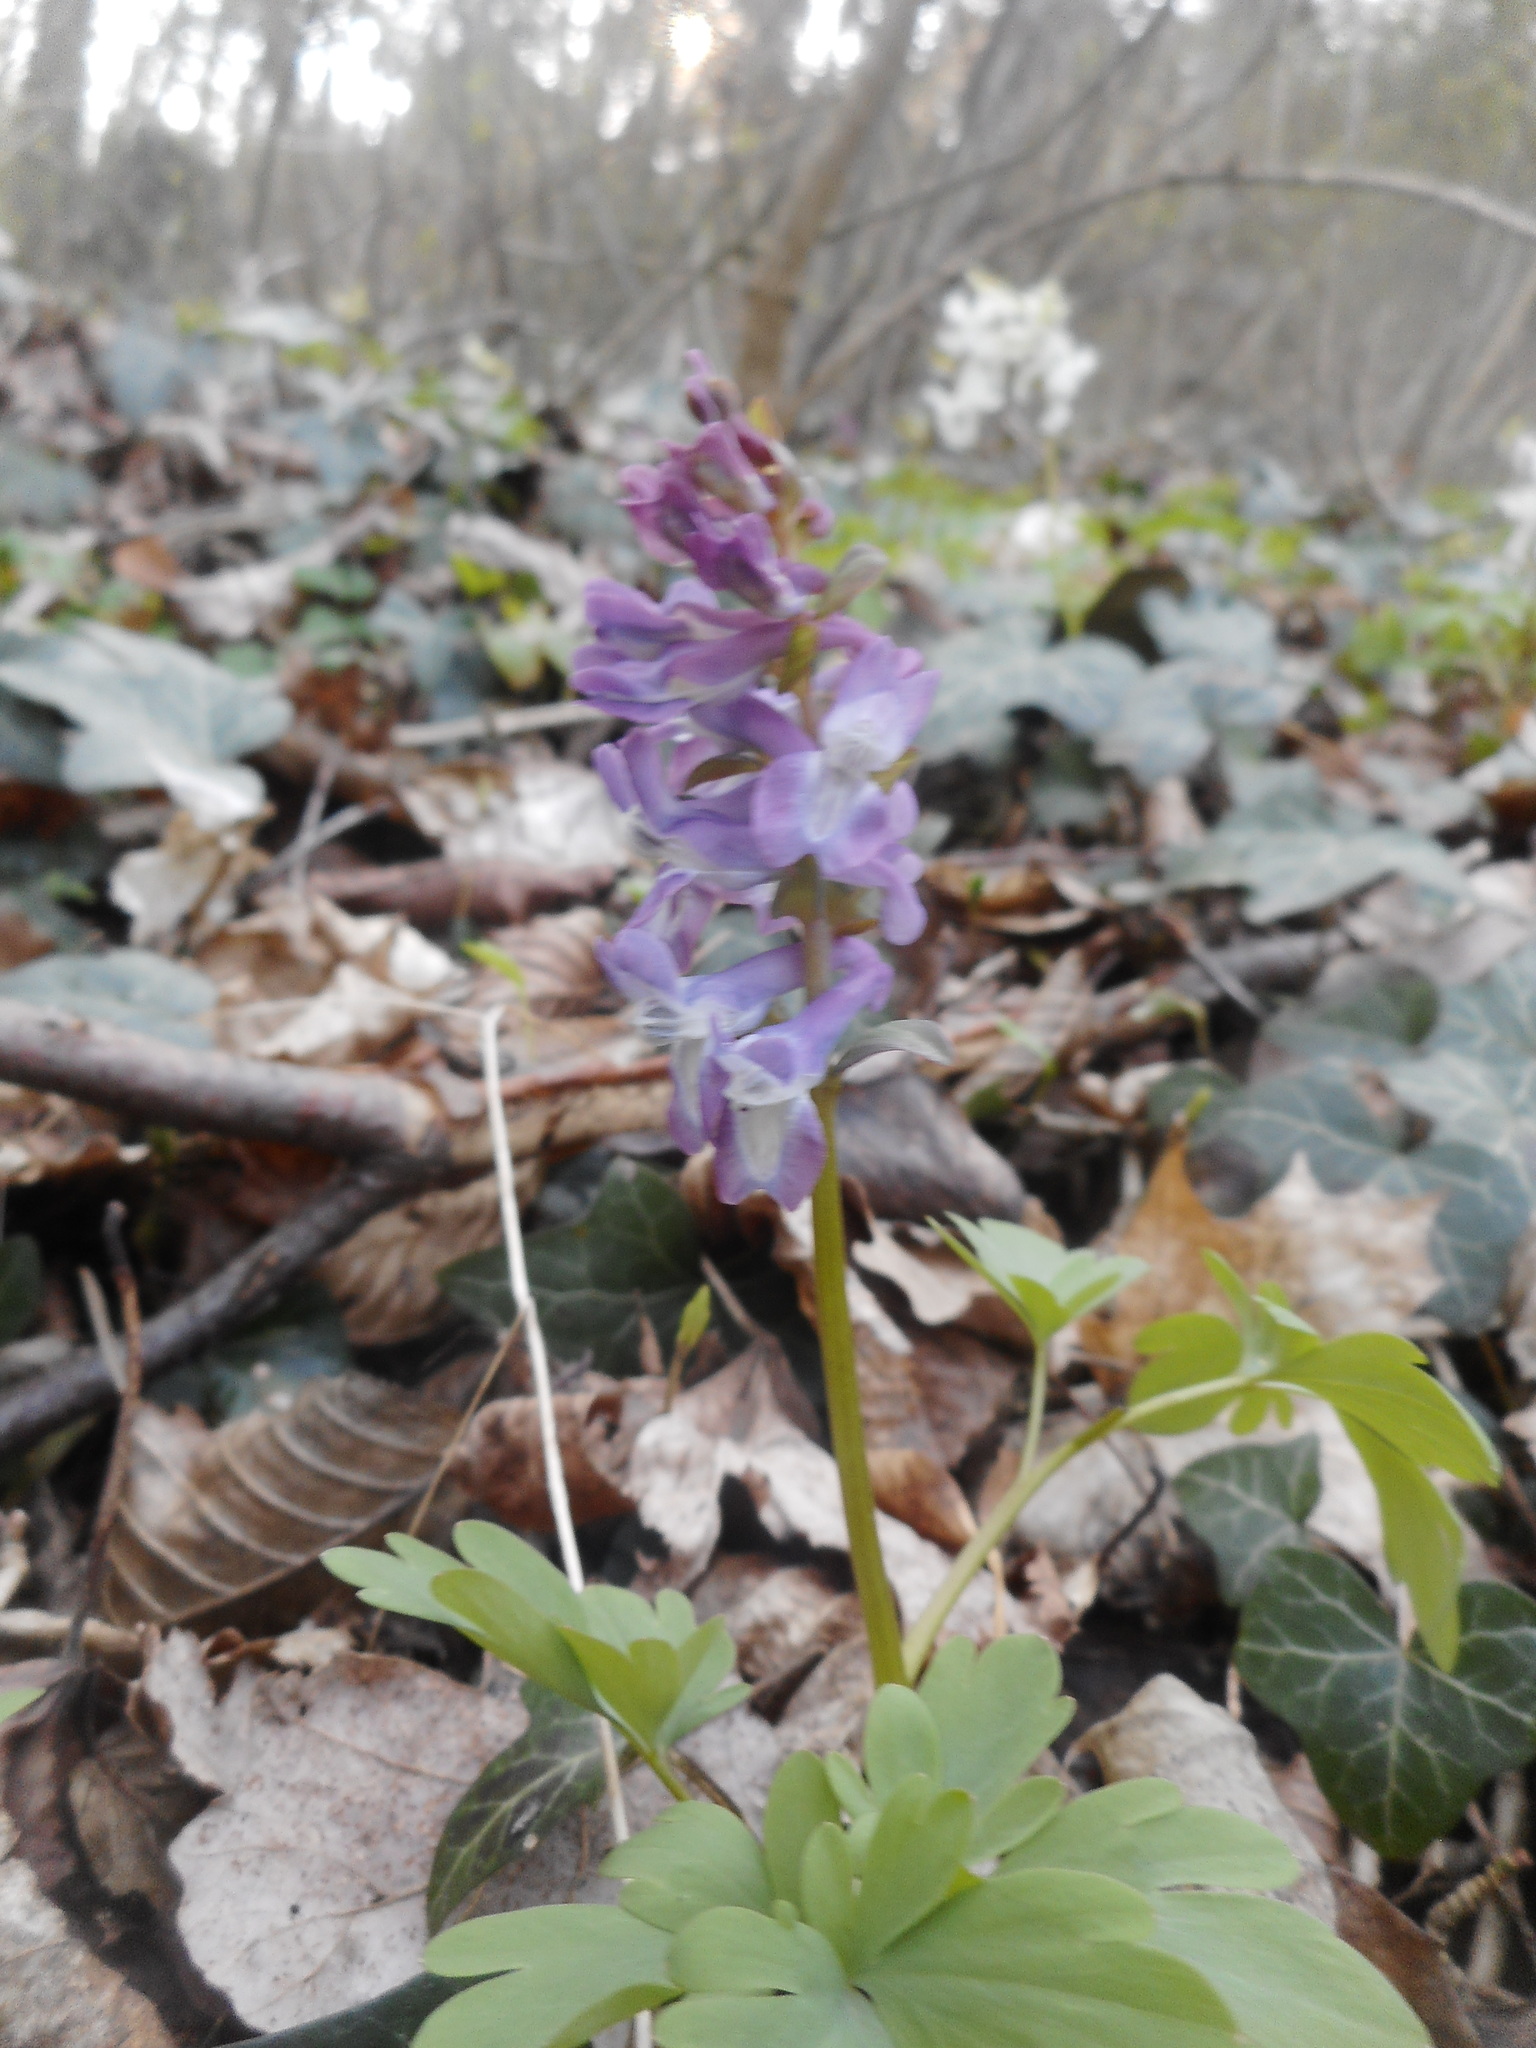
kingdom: Plantae
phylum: Tracheophyta
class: Magnoliopsida
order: Ranunculales
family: Papaveraceae
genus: Corydalis
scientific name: Corydalis cava
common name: Hollowroot
